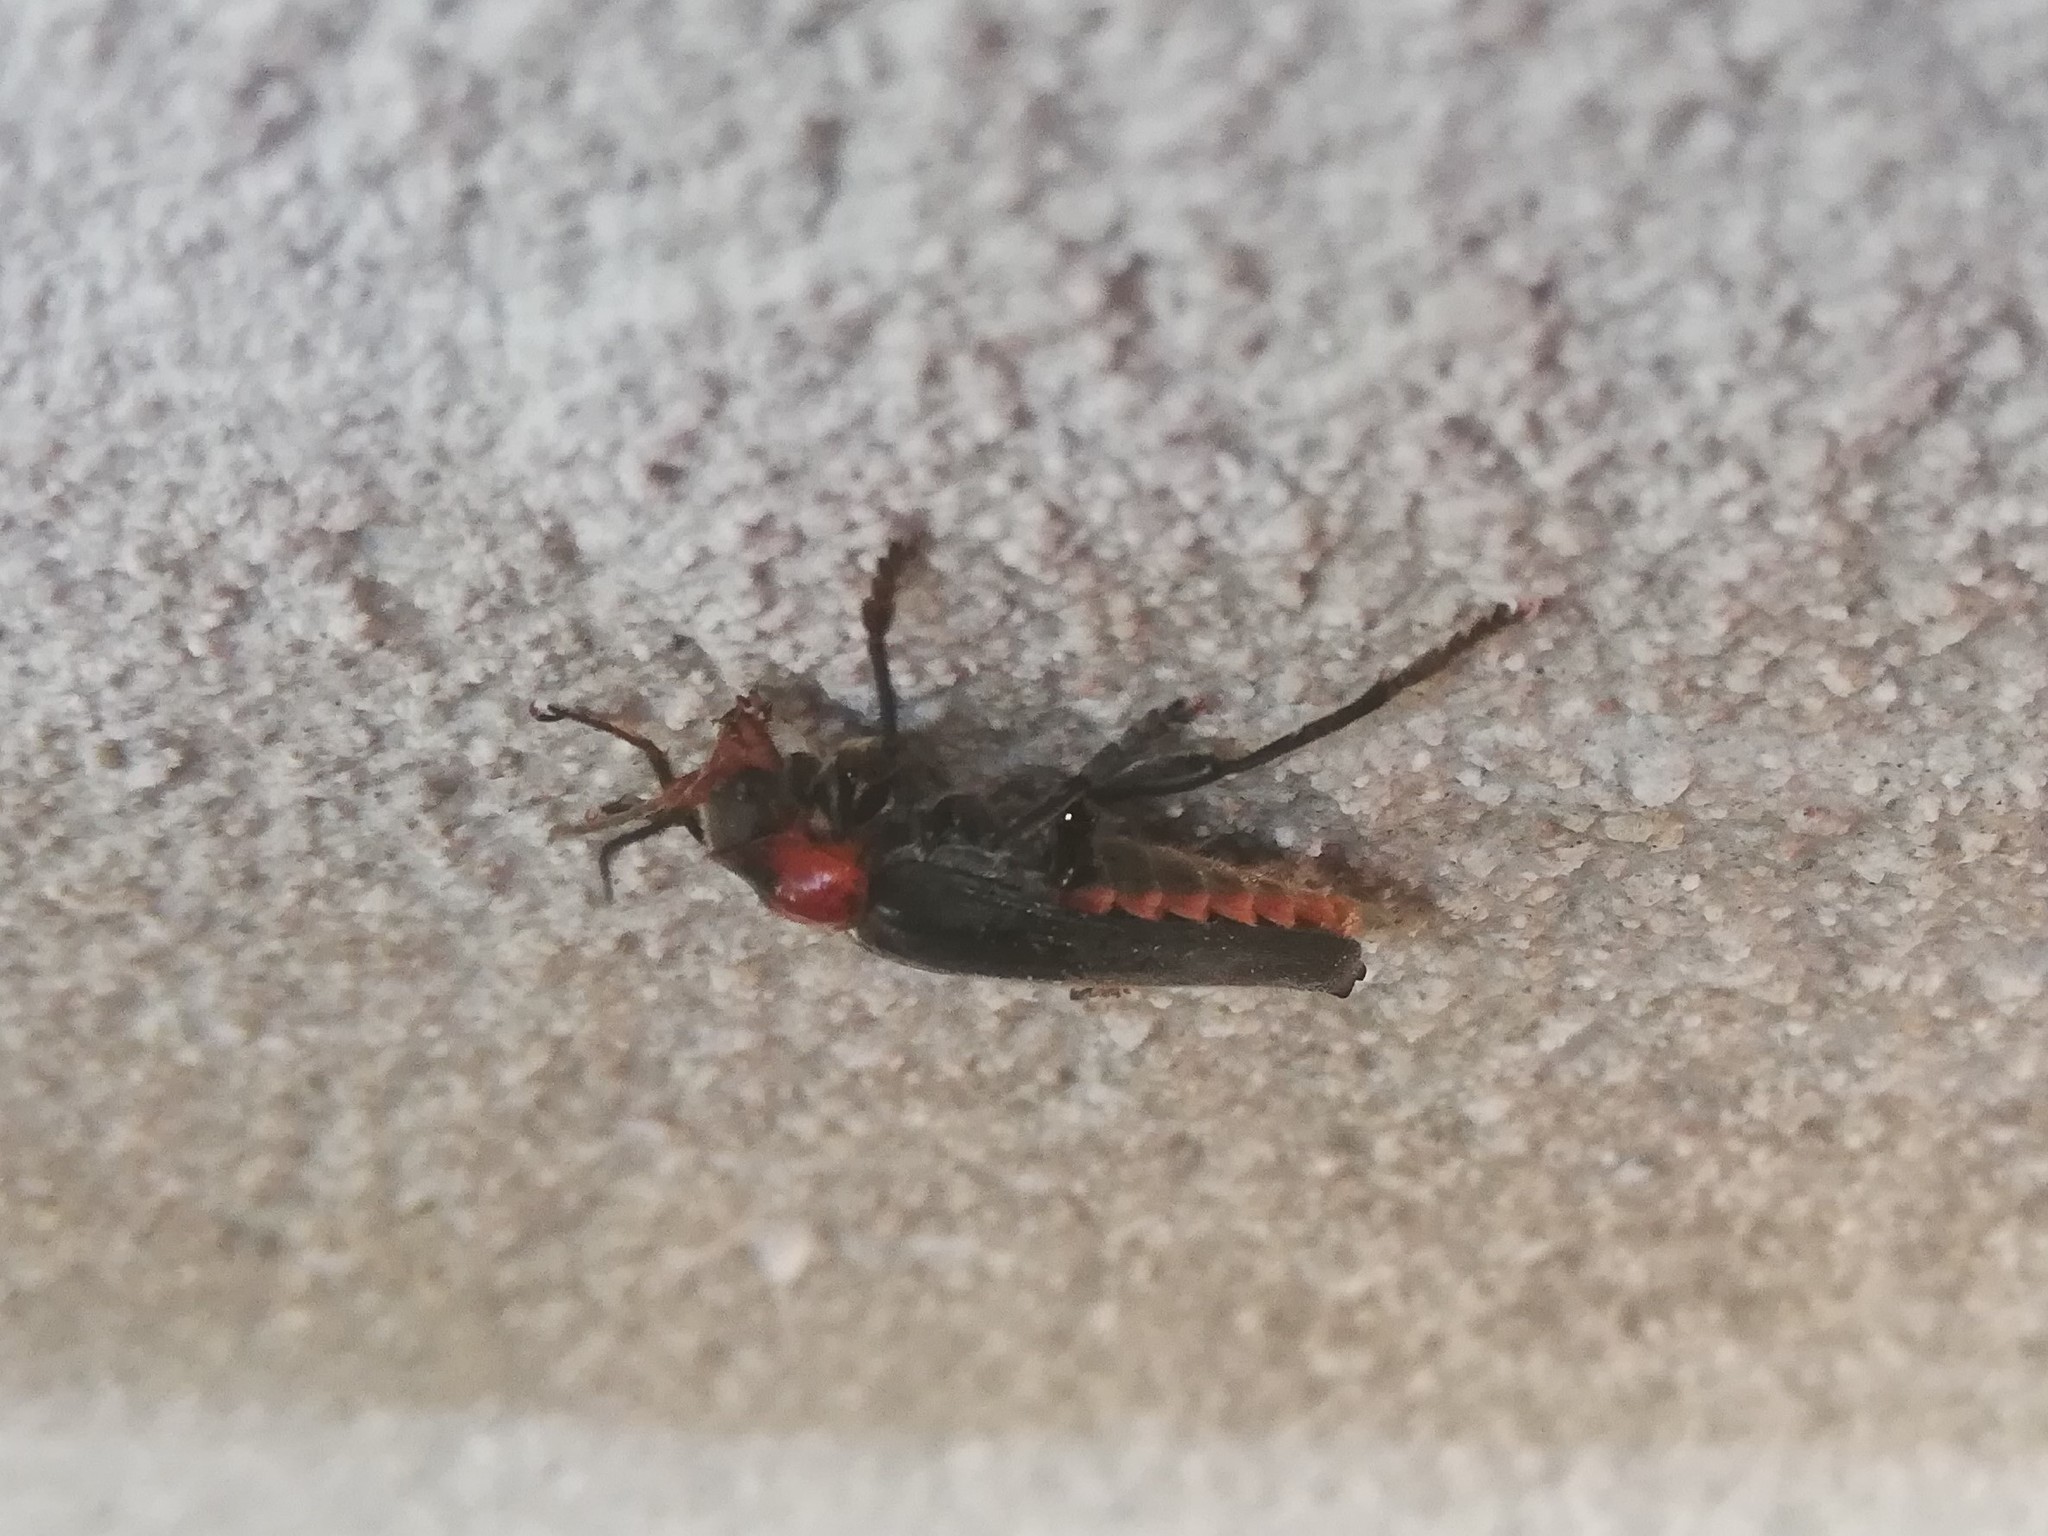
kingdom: Animalia
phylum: Arthropoda
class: Insecta
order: Coleoptera
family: Cantharidae
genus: Cantharis
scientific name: Cantharis fusca
